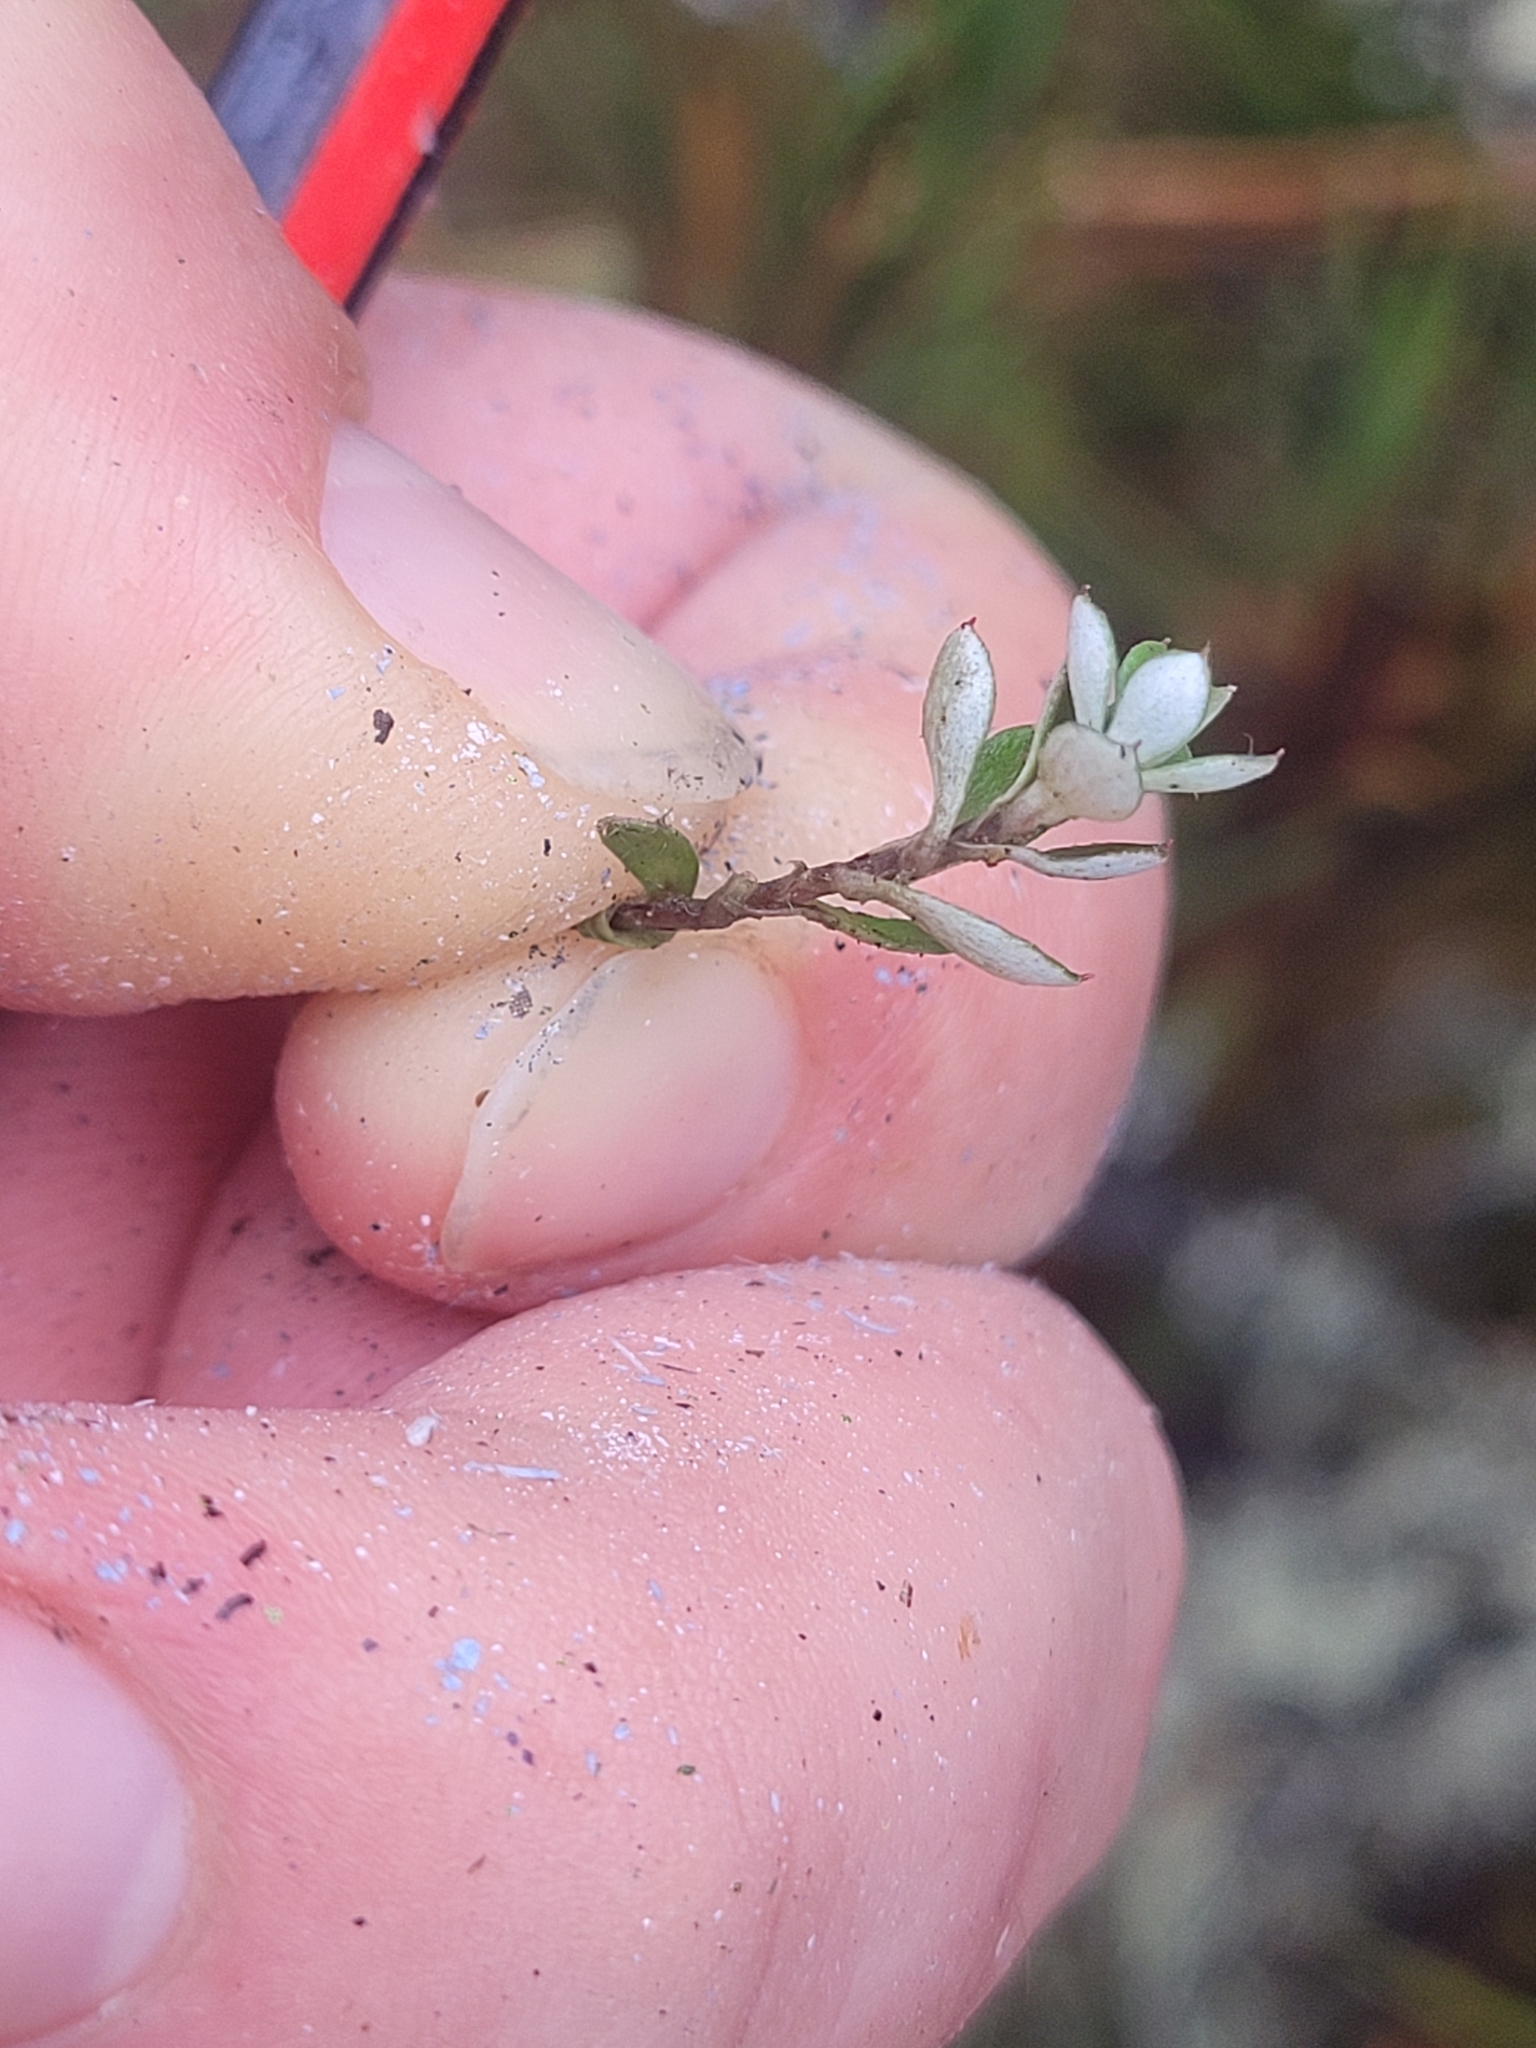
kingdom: Plantae
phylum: Tracheophyta
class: Magnoliopsida
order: Asterales
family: Asteraceae
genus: Anaphalioides
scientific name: Anaphalioides bellidioides
